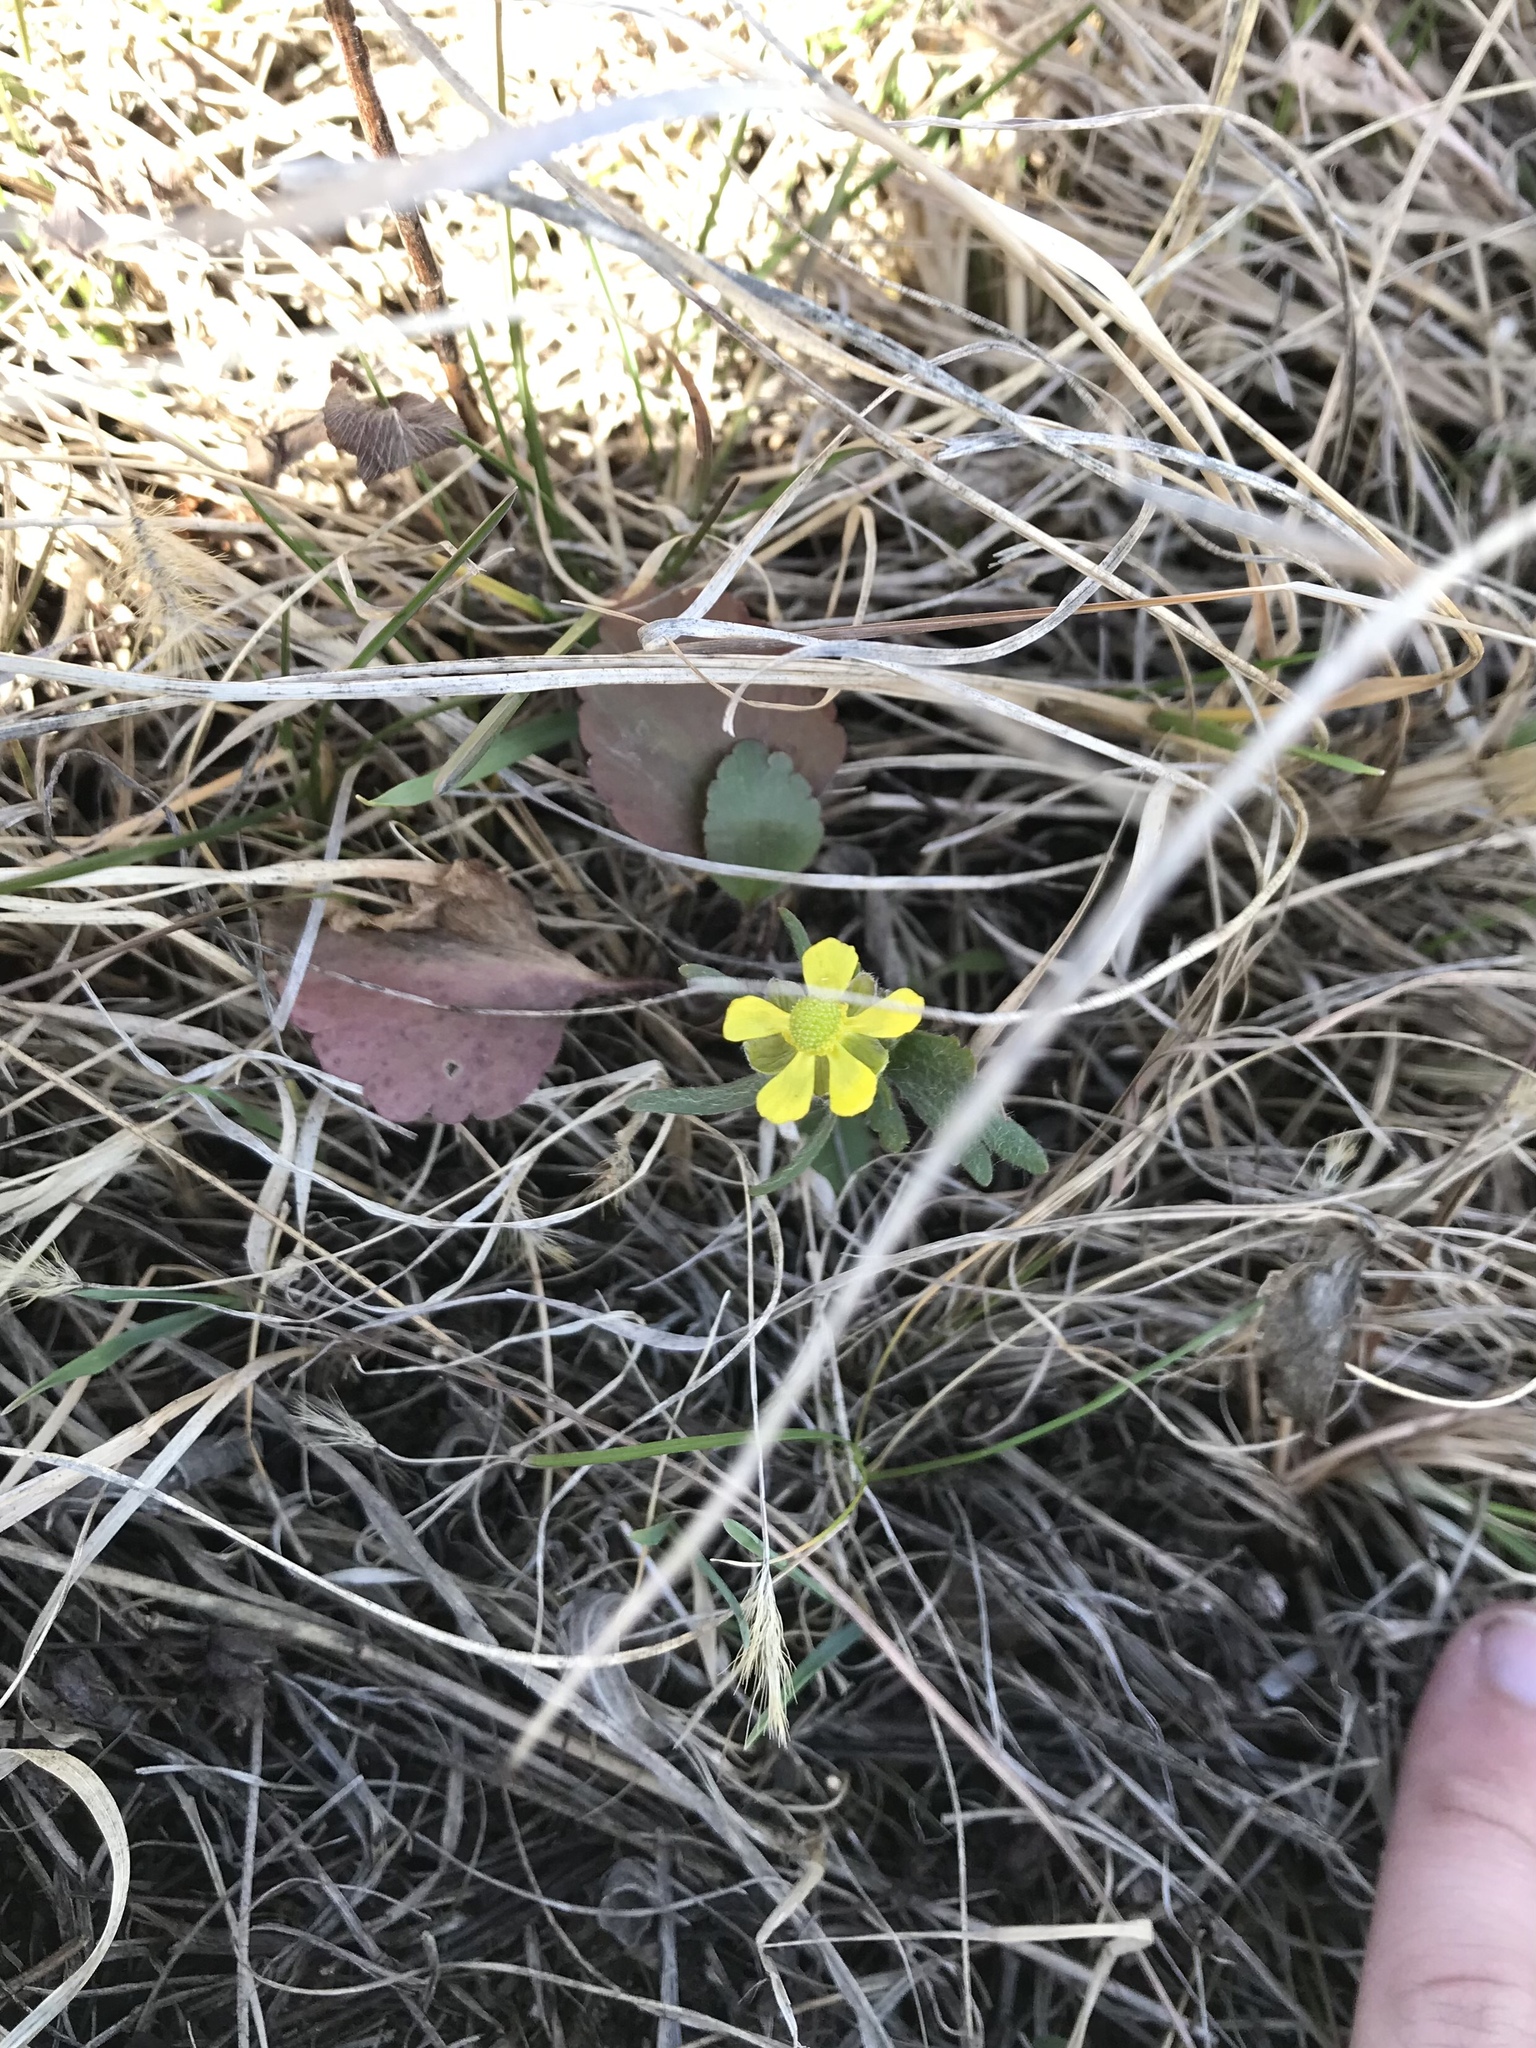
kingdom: Plantae
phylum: Tracheophyta
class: Magnoliopsida
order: Ranunculales
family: Ranunculaceae
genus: Ranunculus
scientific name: Ranunculus rhomboideus
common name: Prairie buttercup
